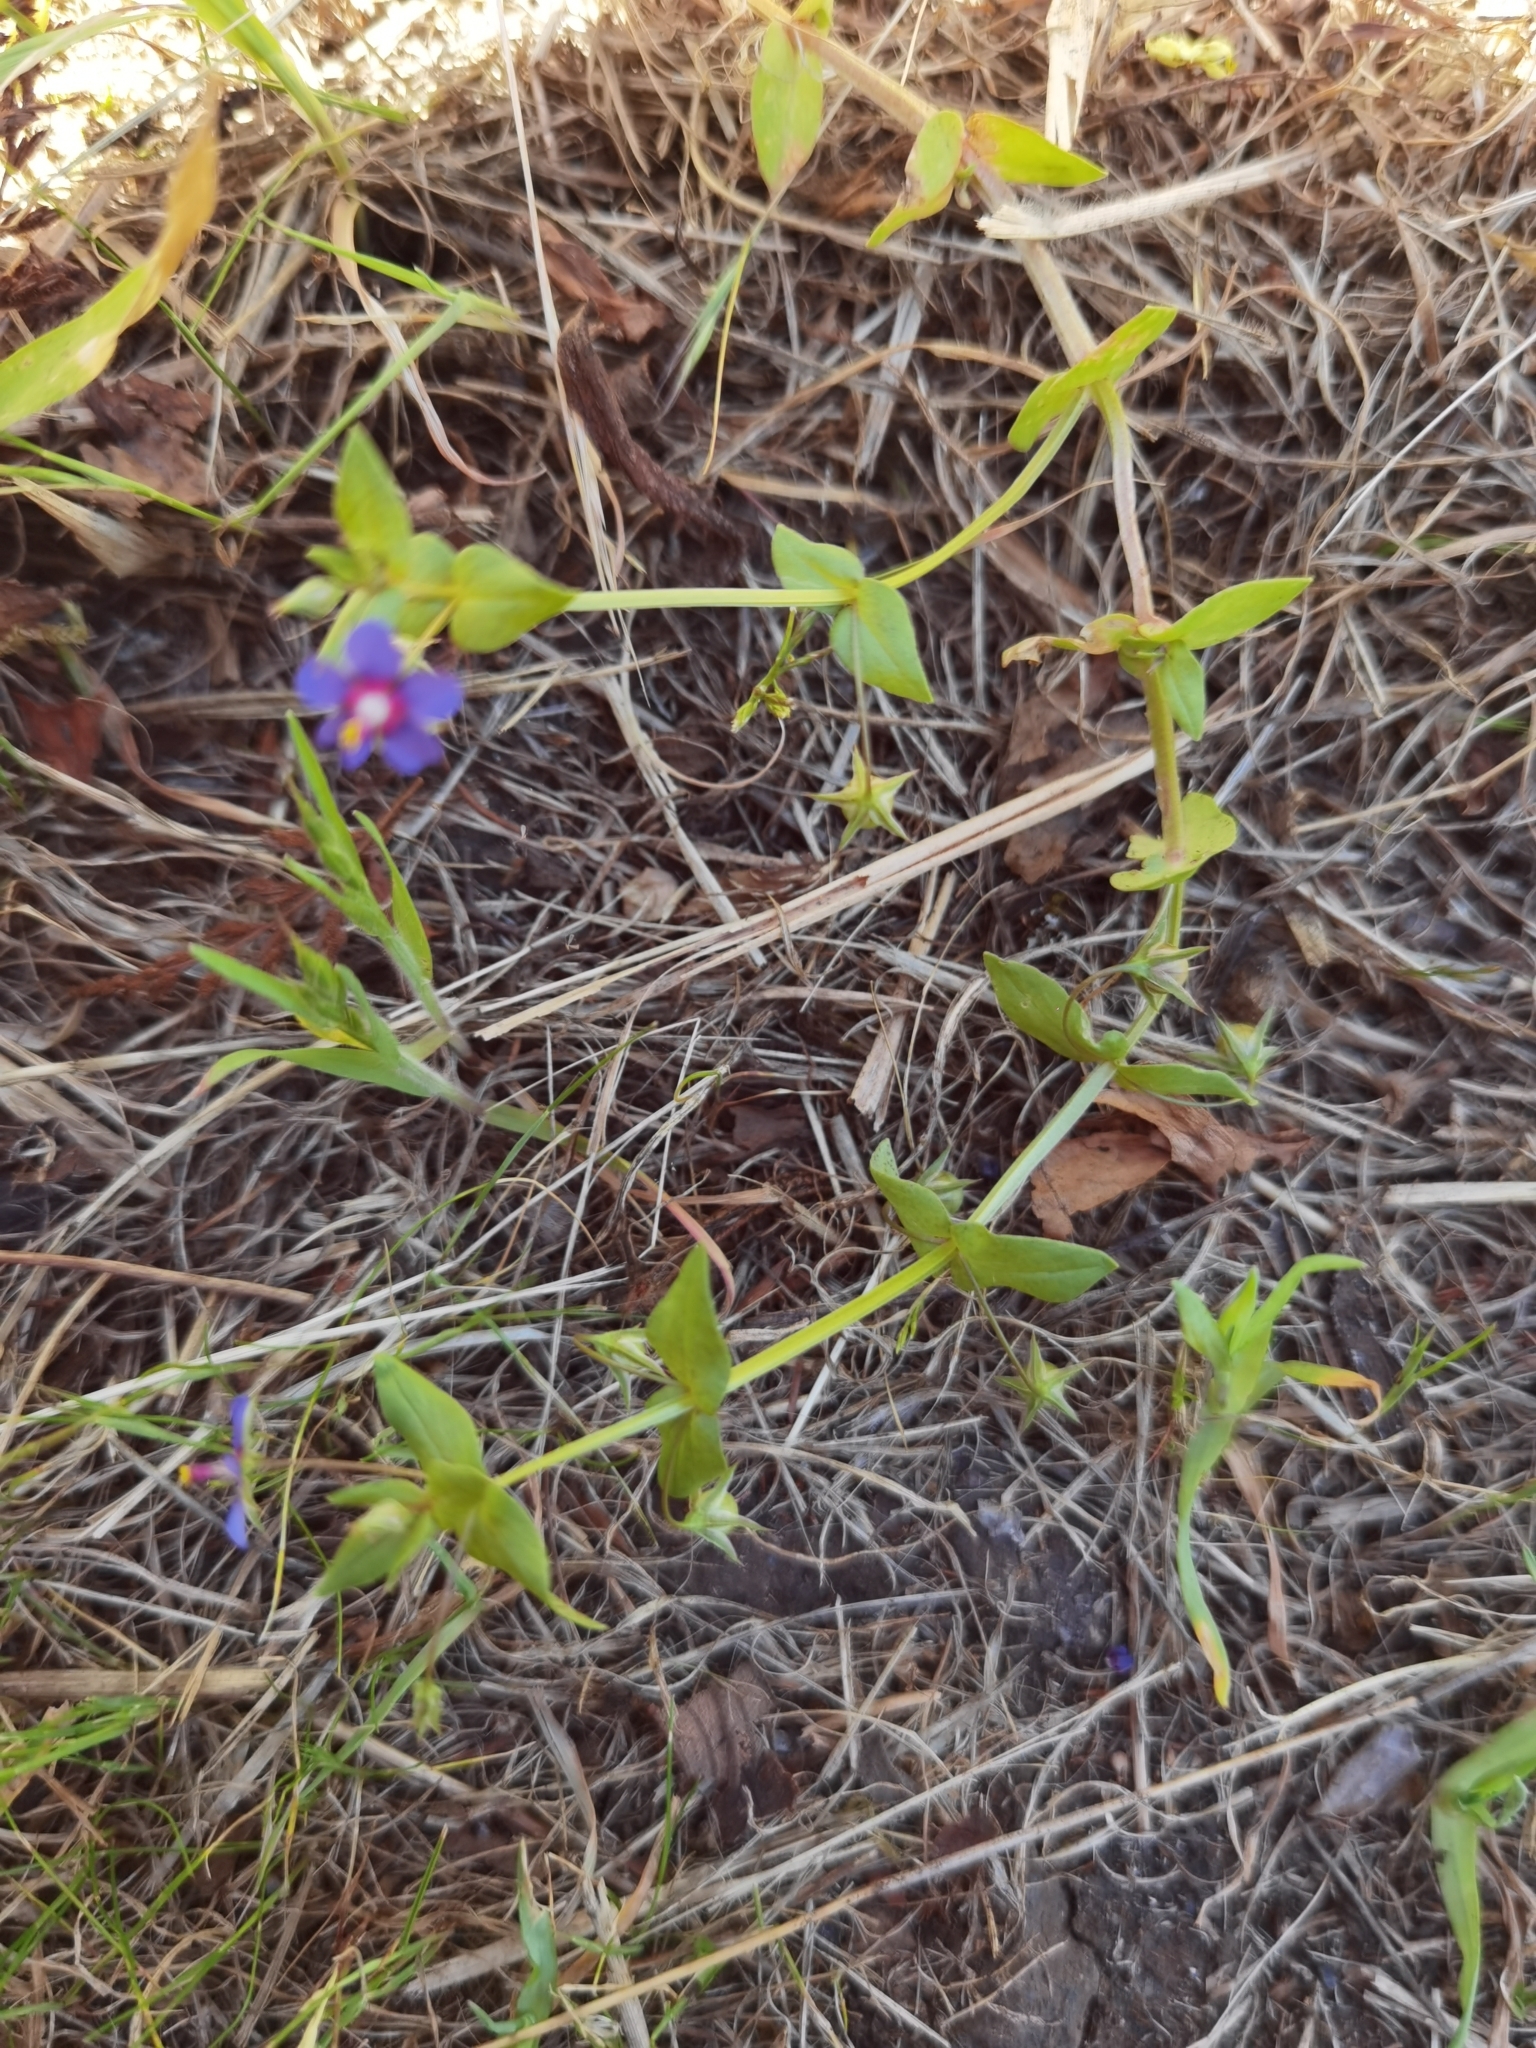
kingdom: Plantae
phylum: Tracheophyta
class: Magnoliopsida
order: Ericales
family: Primulaceae
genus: Lysimachia
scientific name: Lysimachia loeflingii
